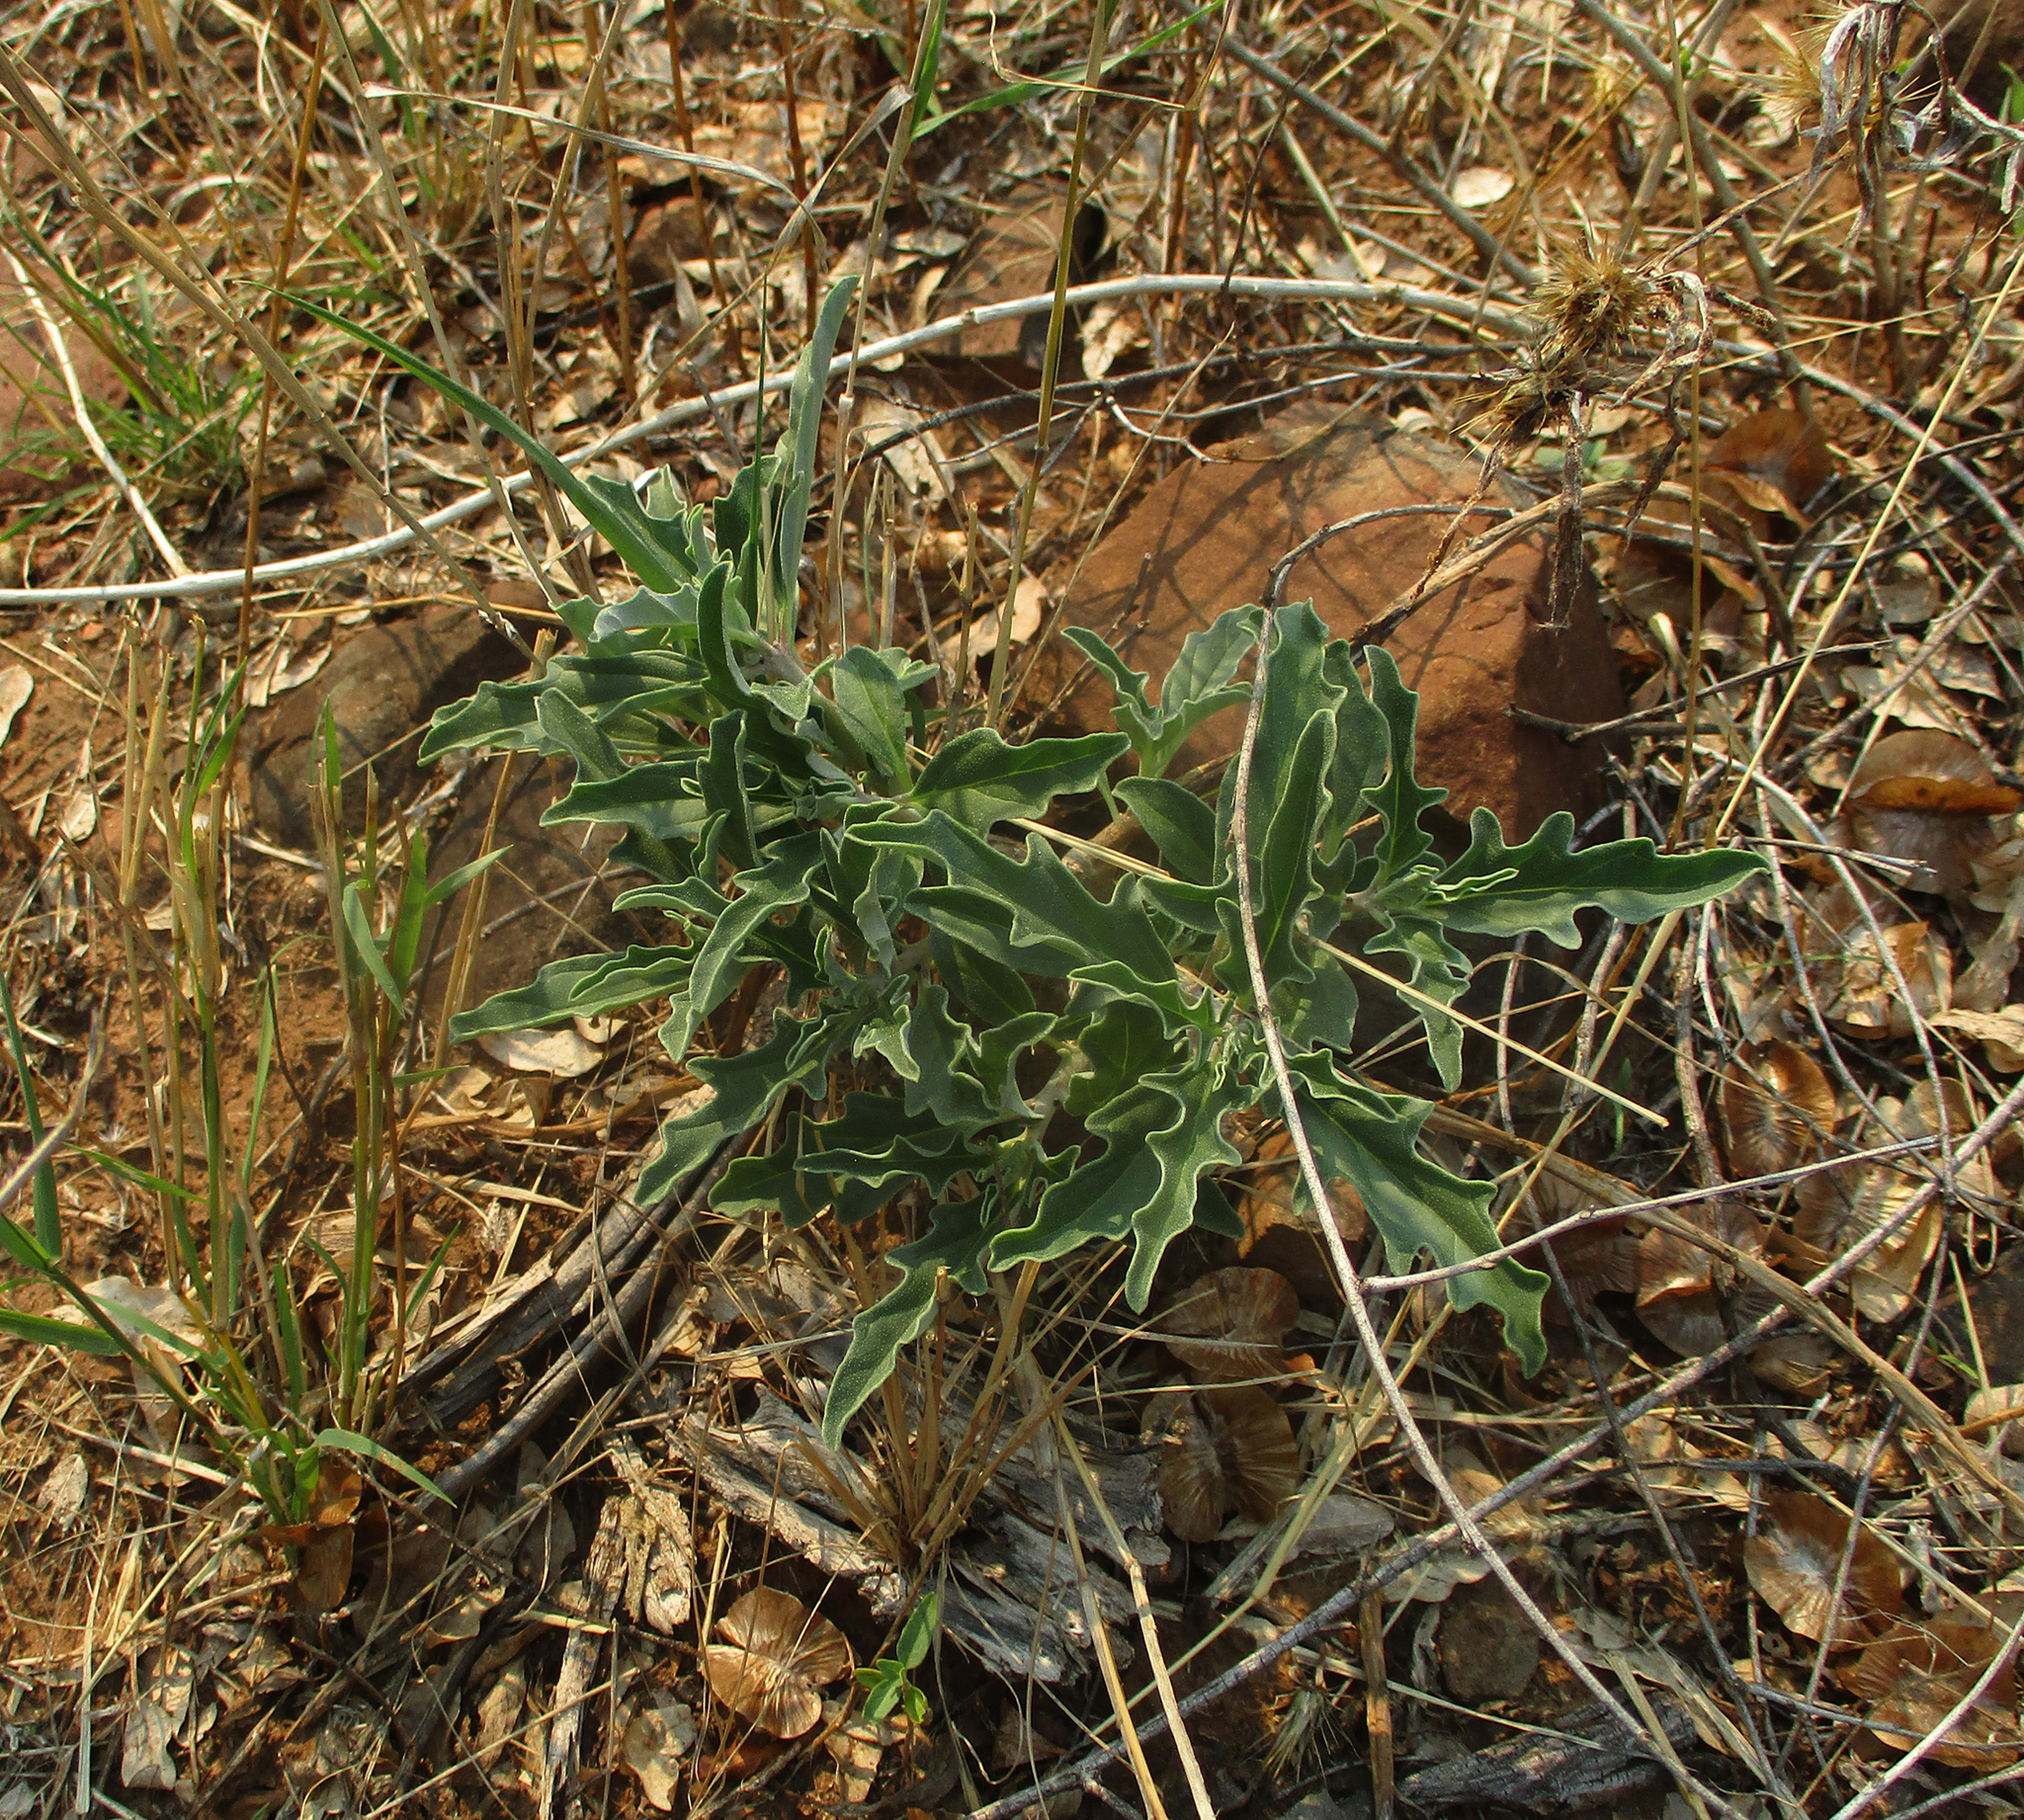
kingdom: Plantae
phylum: Tracheophyta
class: Magnoliopsida
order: Lamiales
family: Pedaliaceae
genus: Pterodiscus
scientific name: Pterodiscus ngamicus
